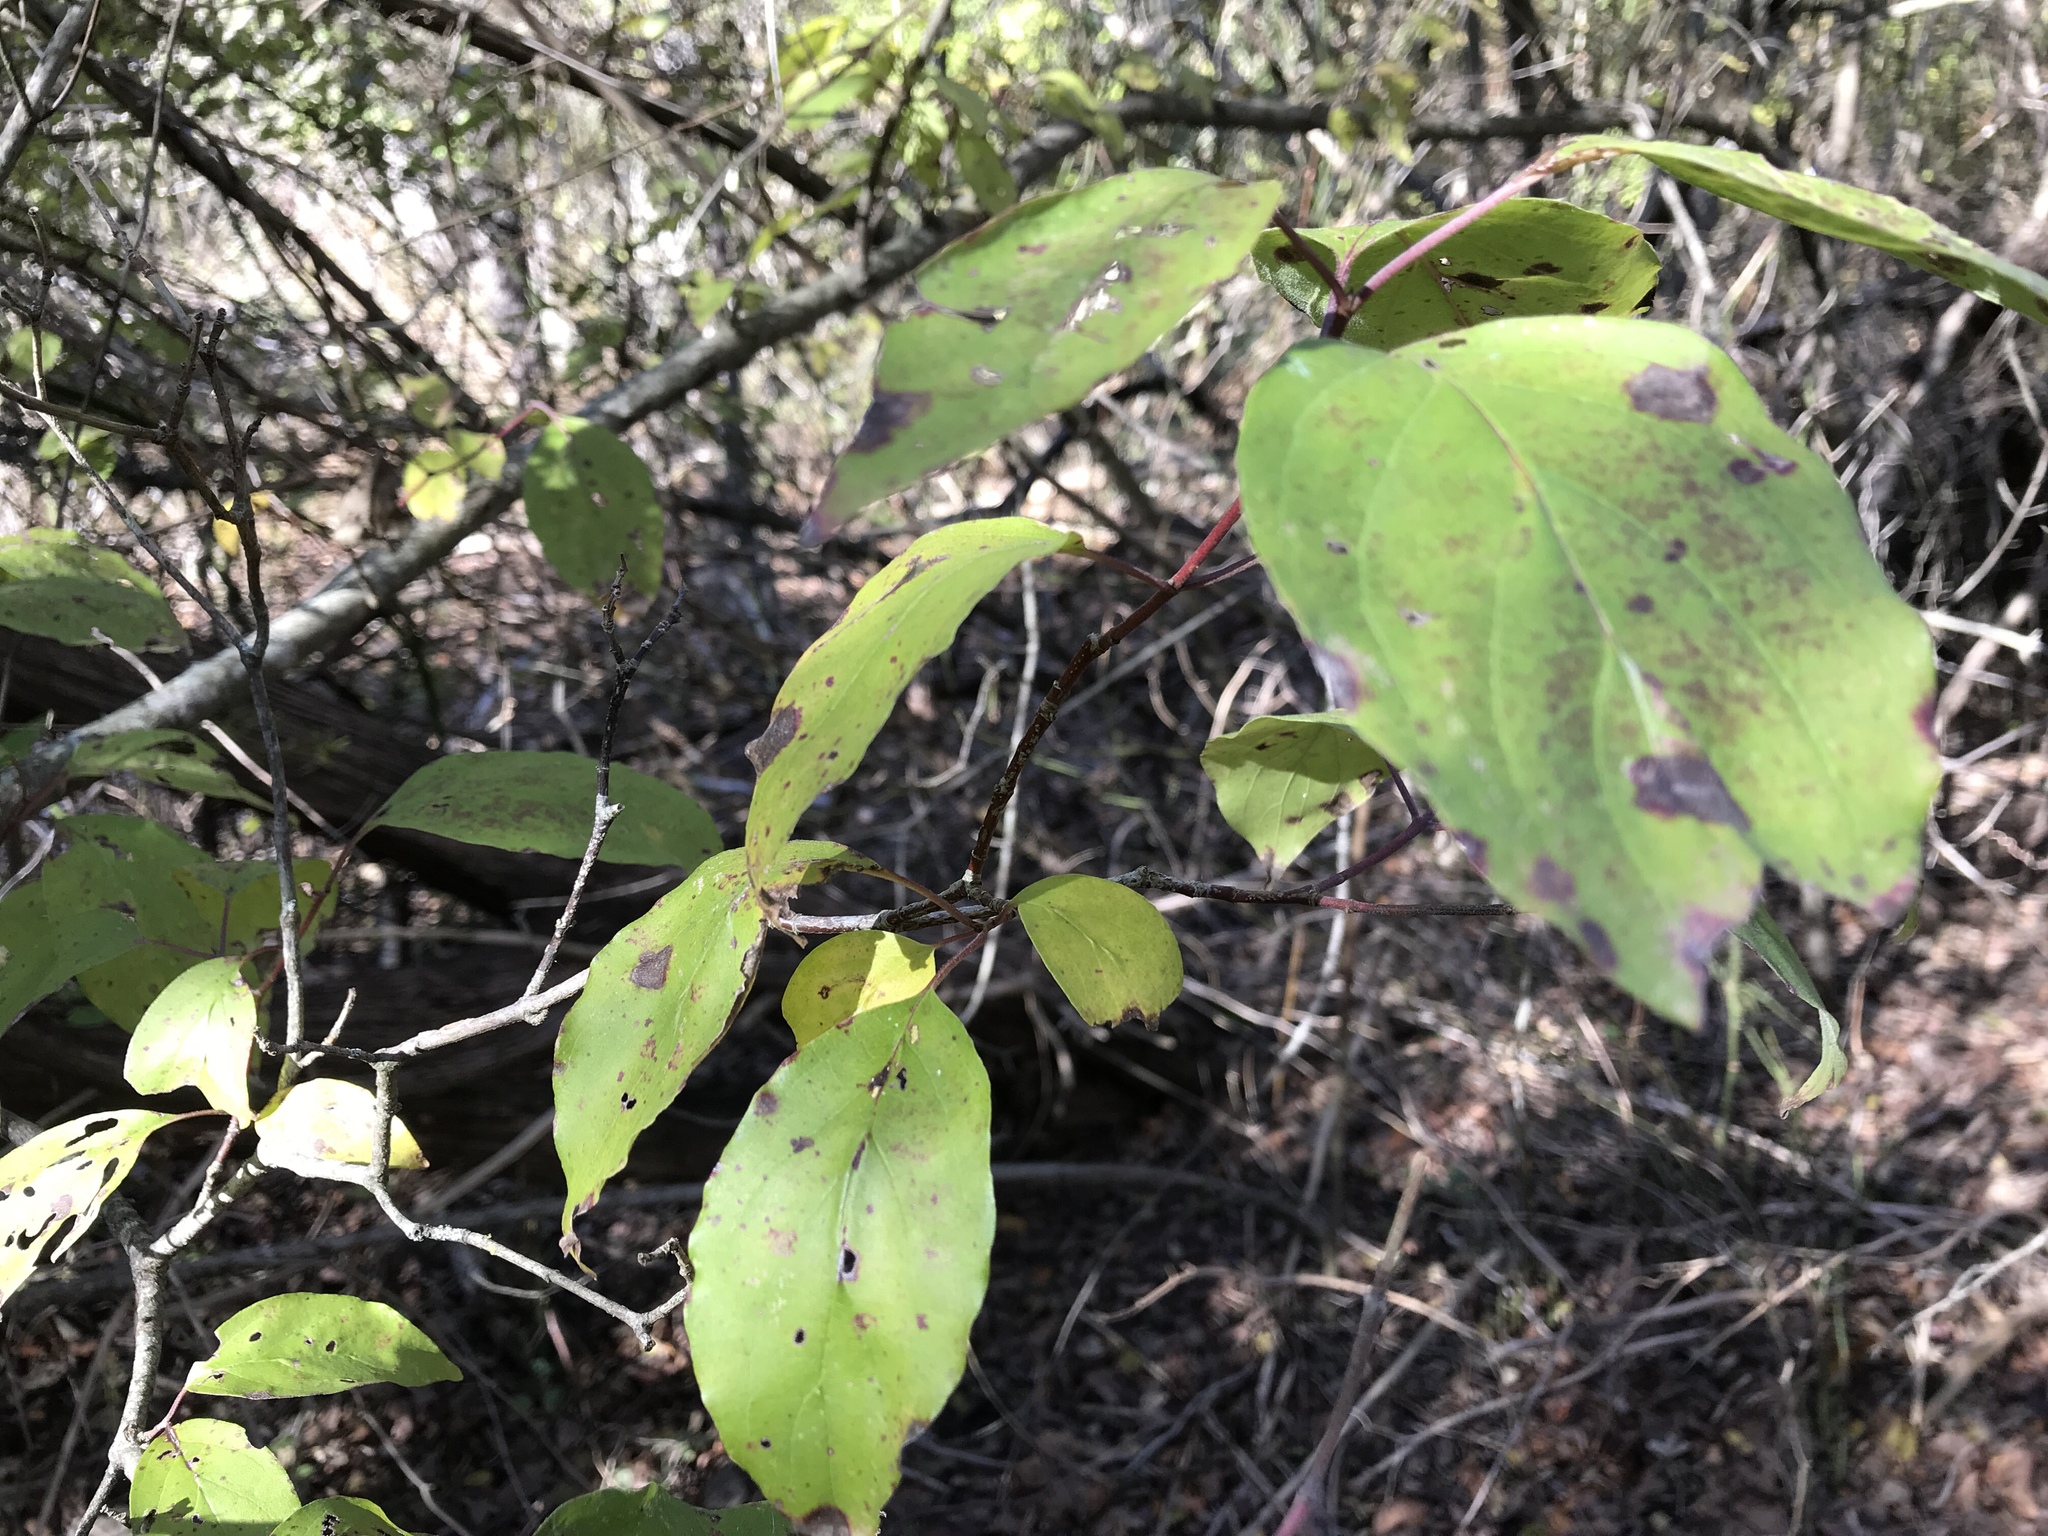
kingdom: Plantae
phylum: Tracheophyta
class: Magnoliopsida
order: Cornales
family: Cornaceae
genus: Cornus
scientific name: Cornus drummondii
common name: Rough-leaf dogwood
